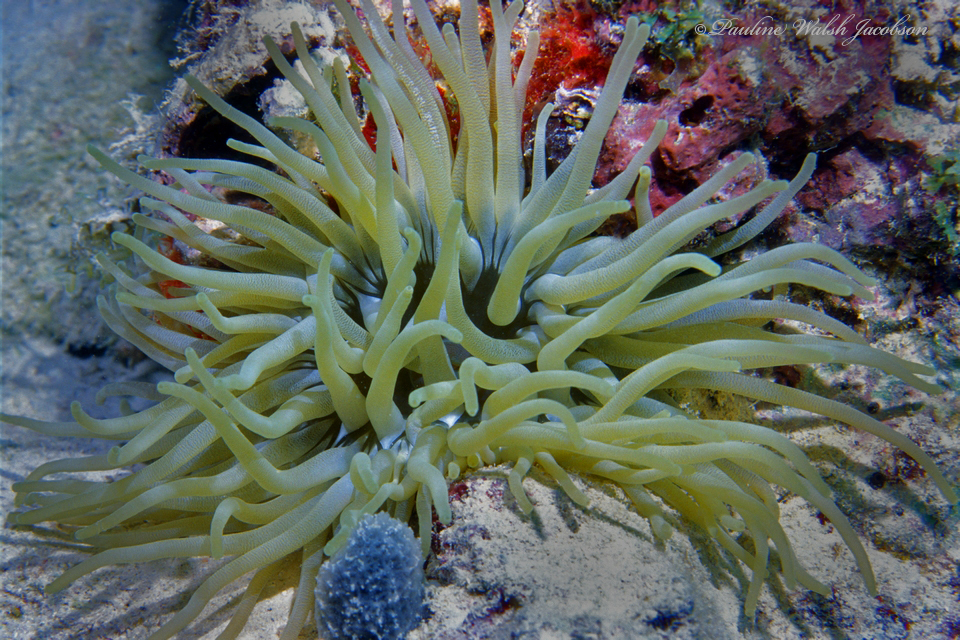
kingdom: Animalia
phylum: Cnidaria
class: Anthozoa
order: Actiniaria
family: Actiniidae
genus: Condylactis
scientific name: Condylactis gigantea
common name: Giant caribbean anemone
